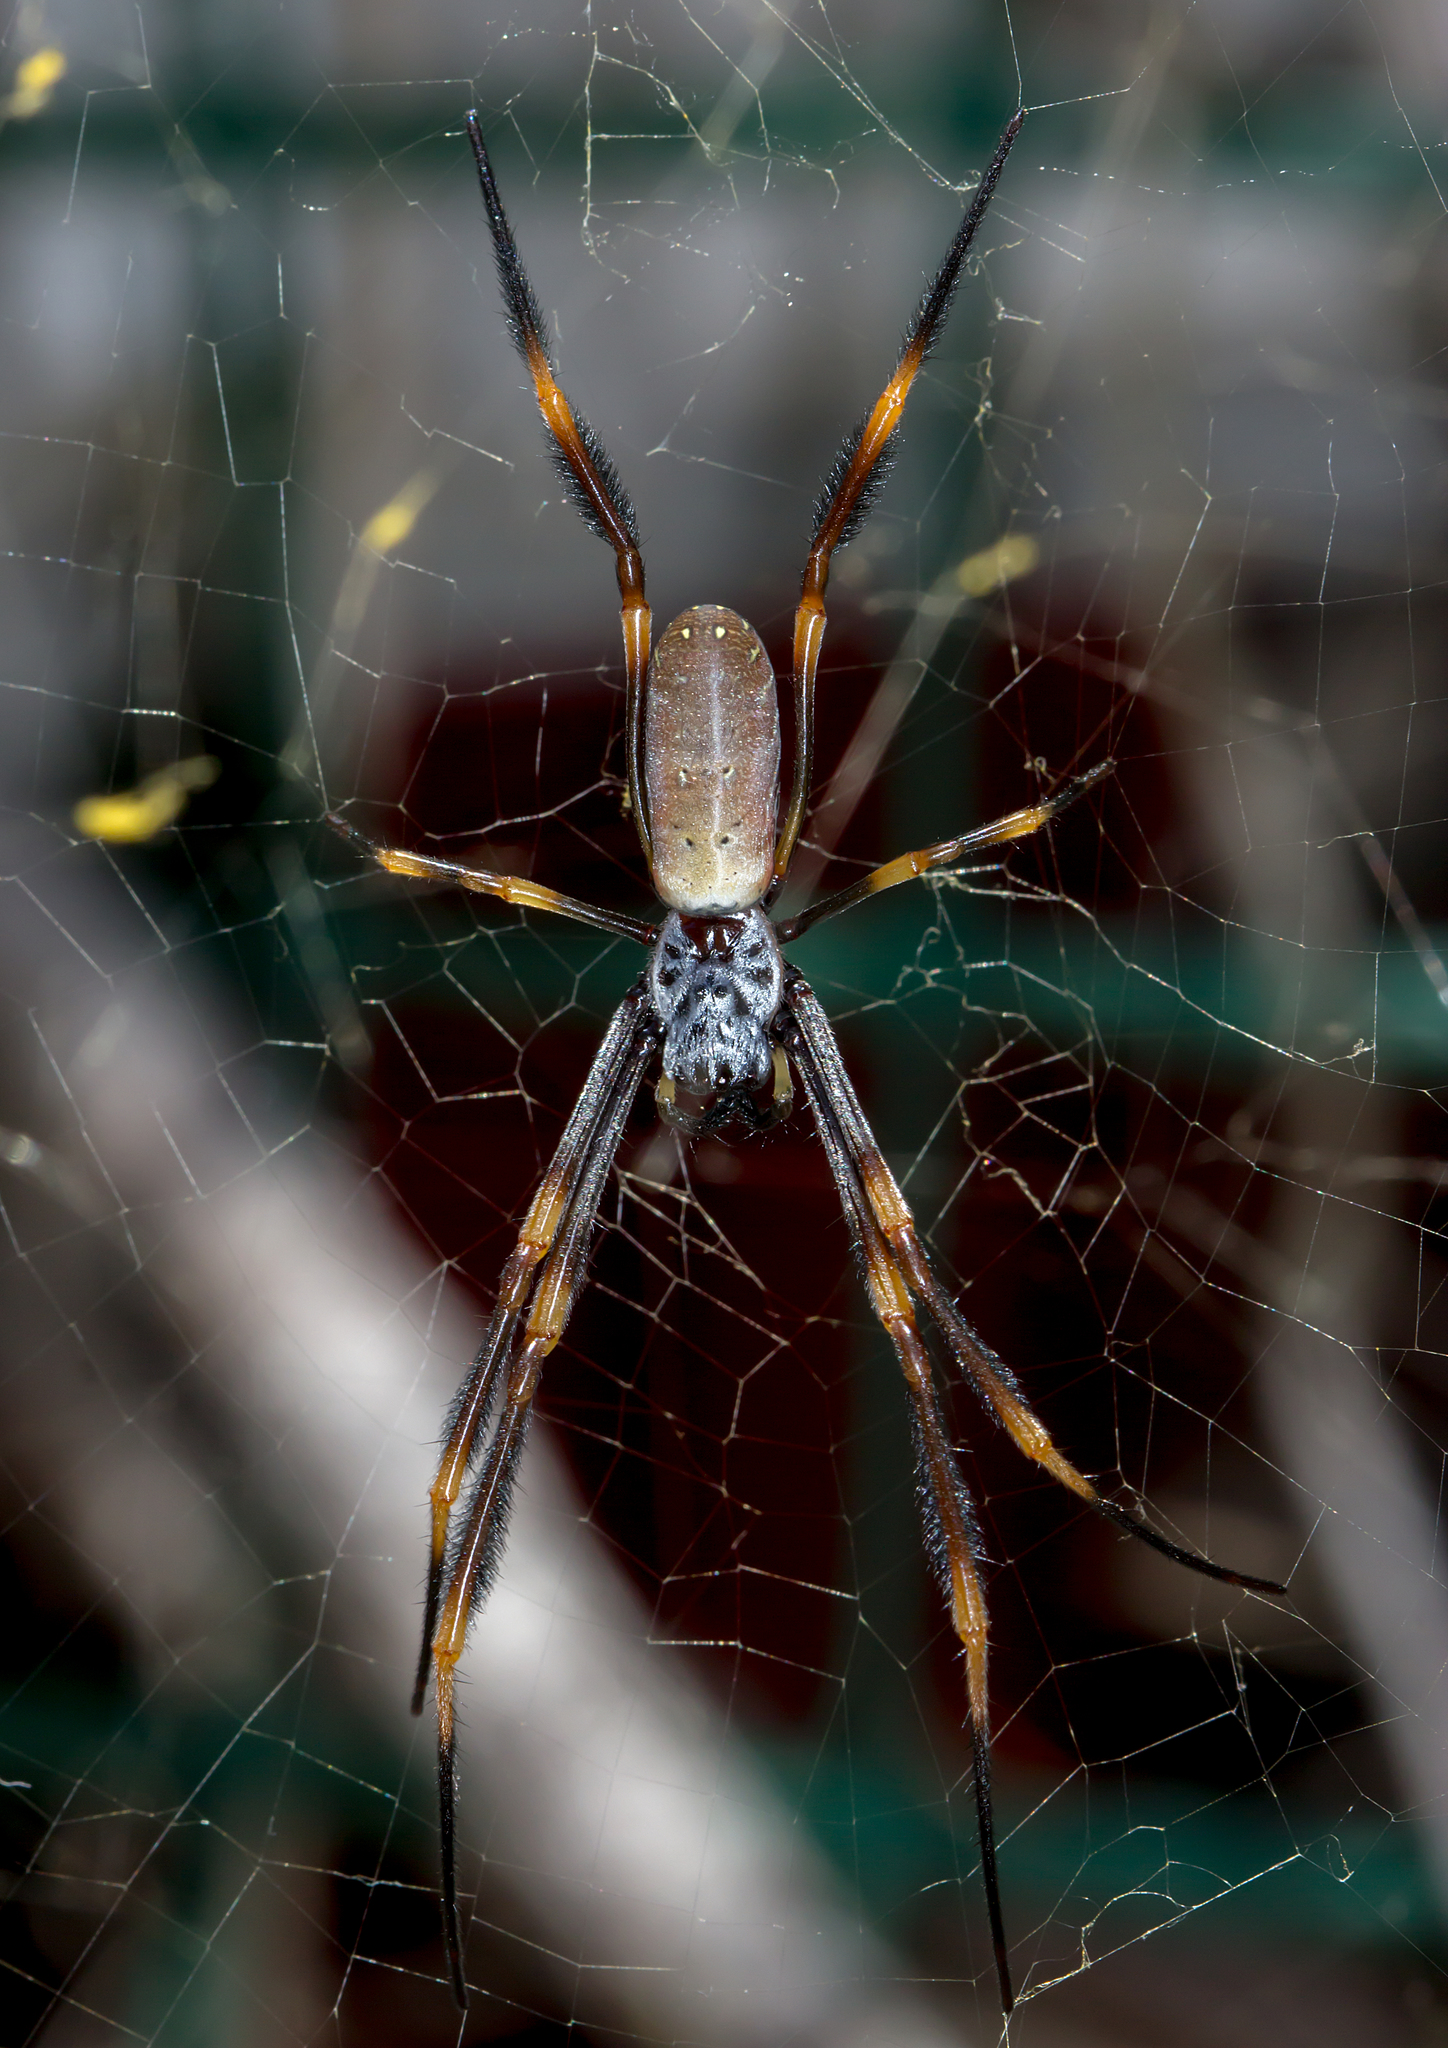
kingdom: Animalia
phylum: Arthropoda
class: Arachnida
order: Araneae
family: Araneidae
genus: Trichonephila
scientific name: Trichonephila plumipes
